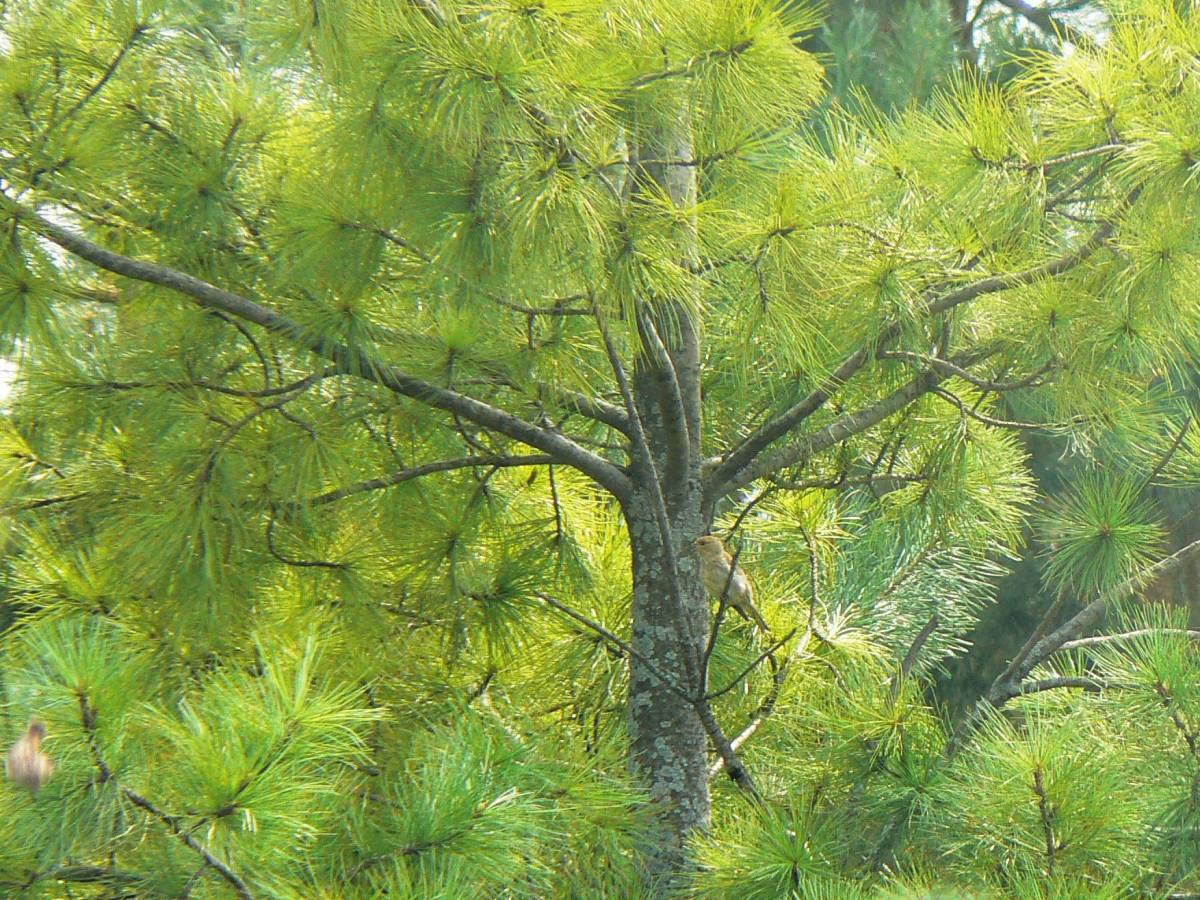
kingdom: Animalia
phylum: Chordata
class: Aves
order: Passeriformes
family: Fringillidae
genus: Loxia
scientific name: Loxia curvirostra
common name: Red crossbill
